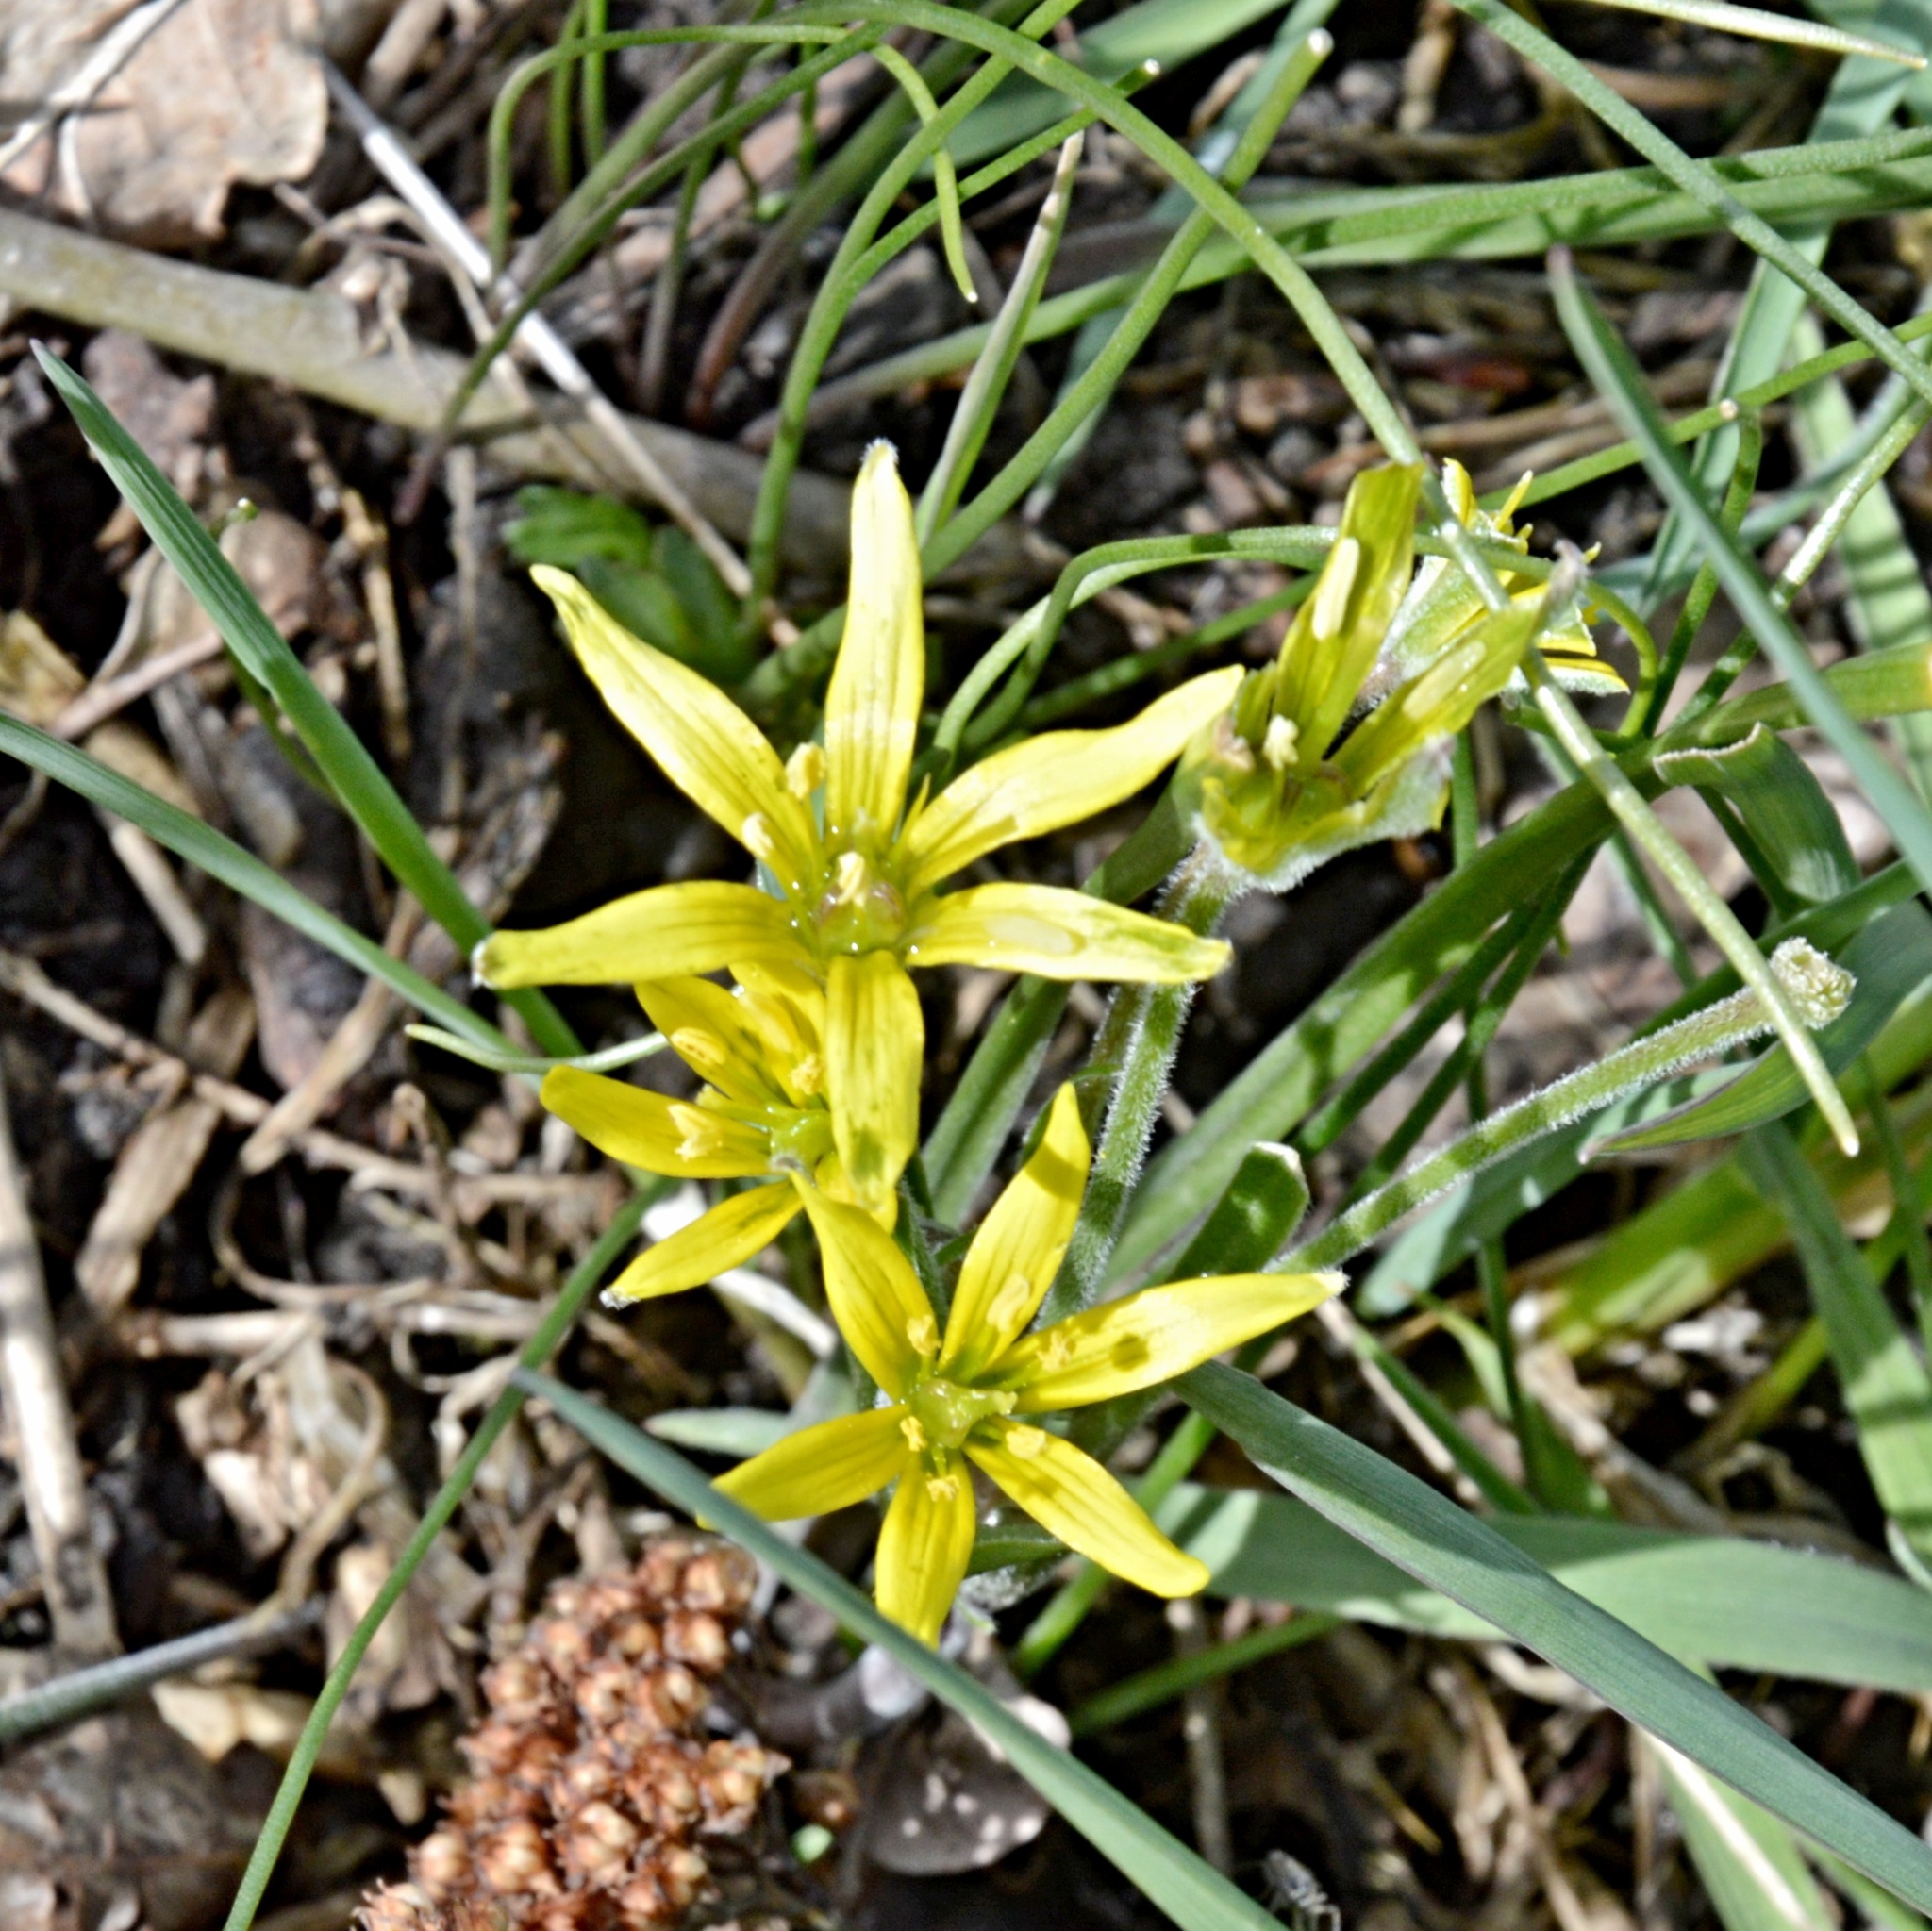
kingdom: Plantae
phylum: Tracheophyta
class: Liliopsida
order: Liliales
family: Liliaceae
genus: Gagea
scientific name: Gagea villosa
